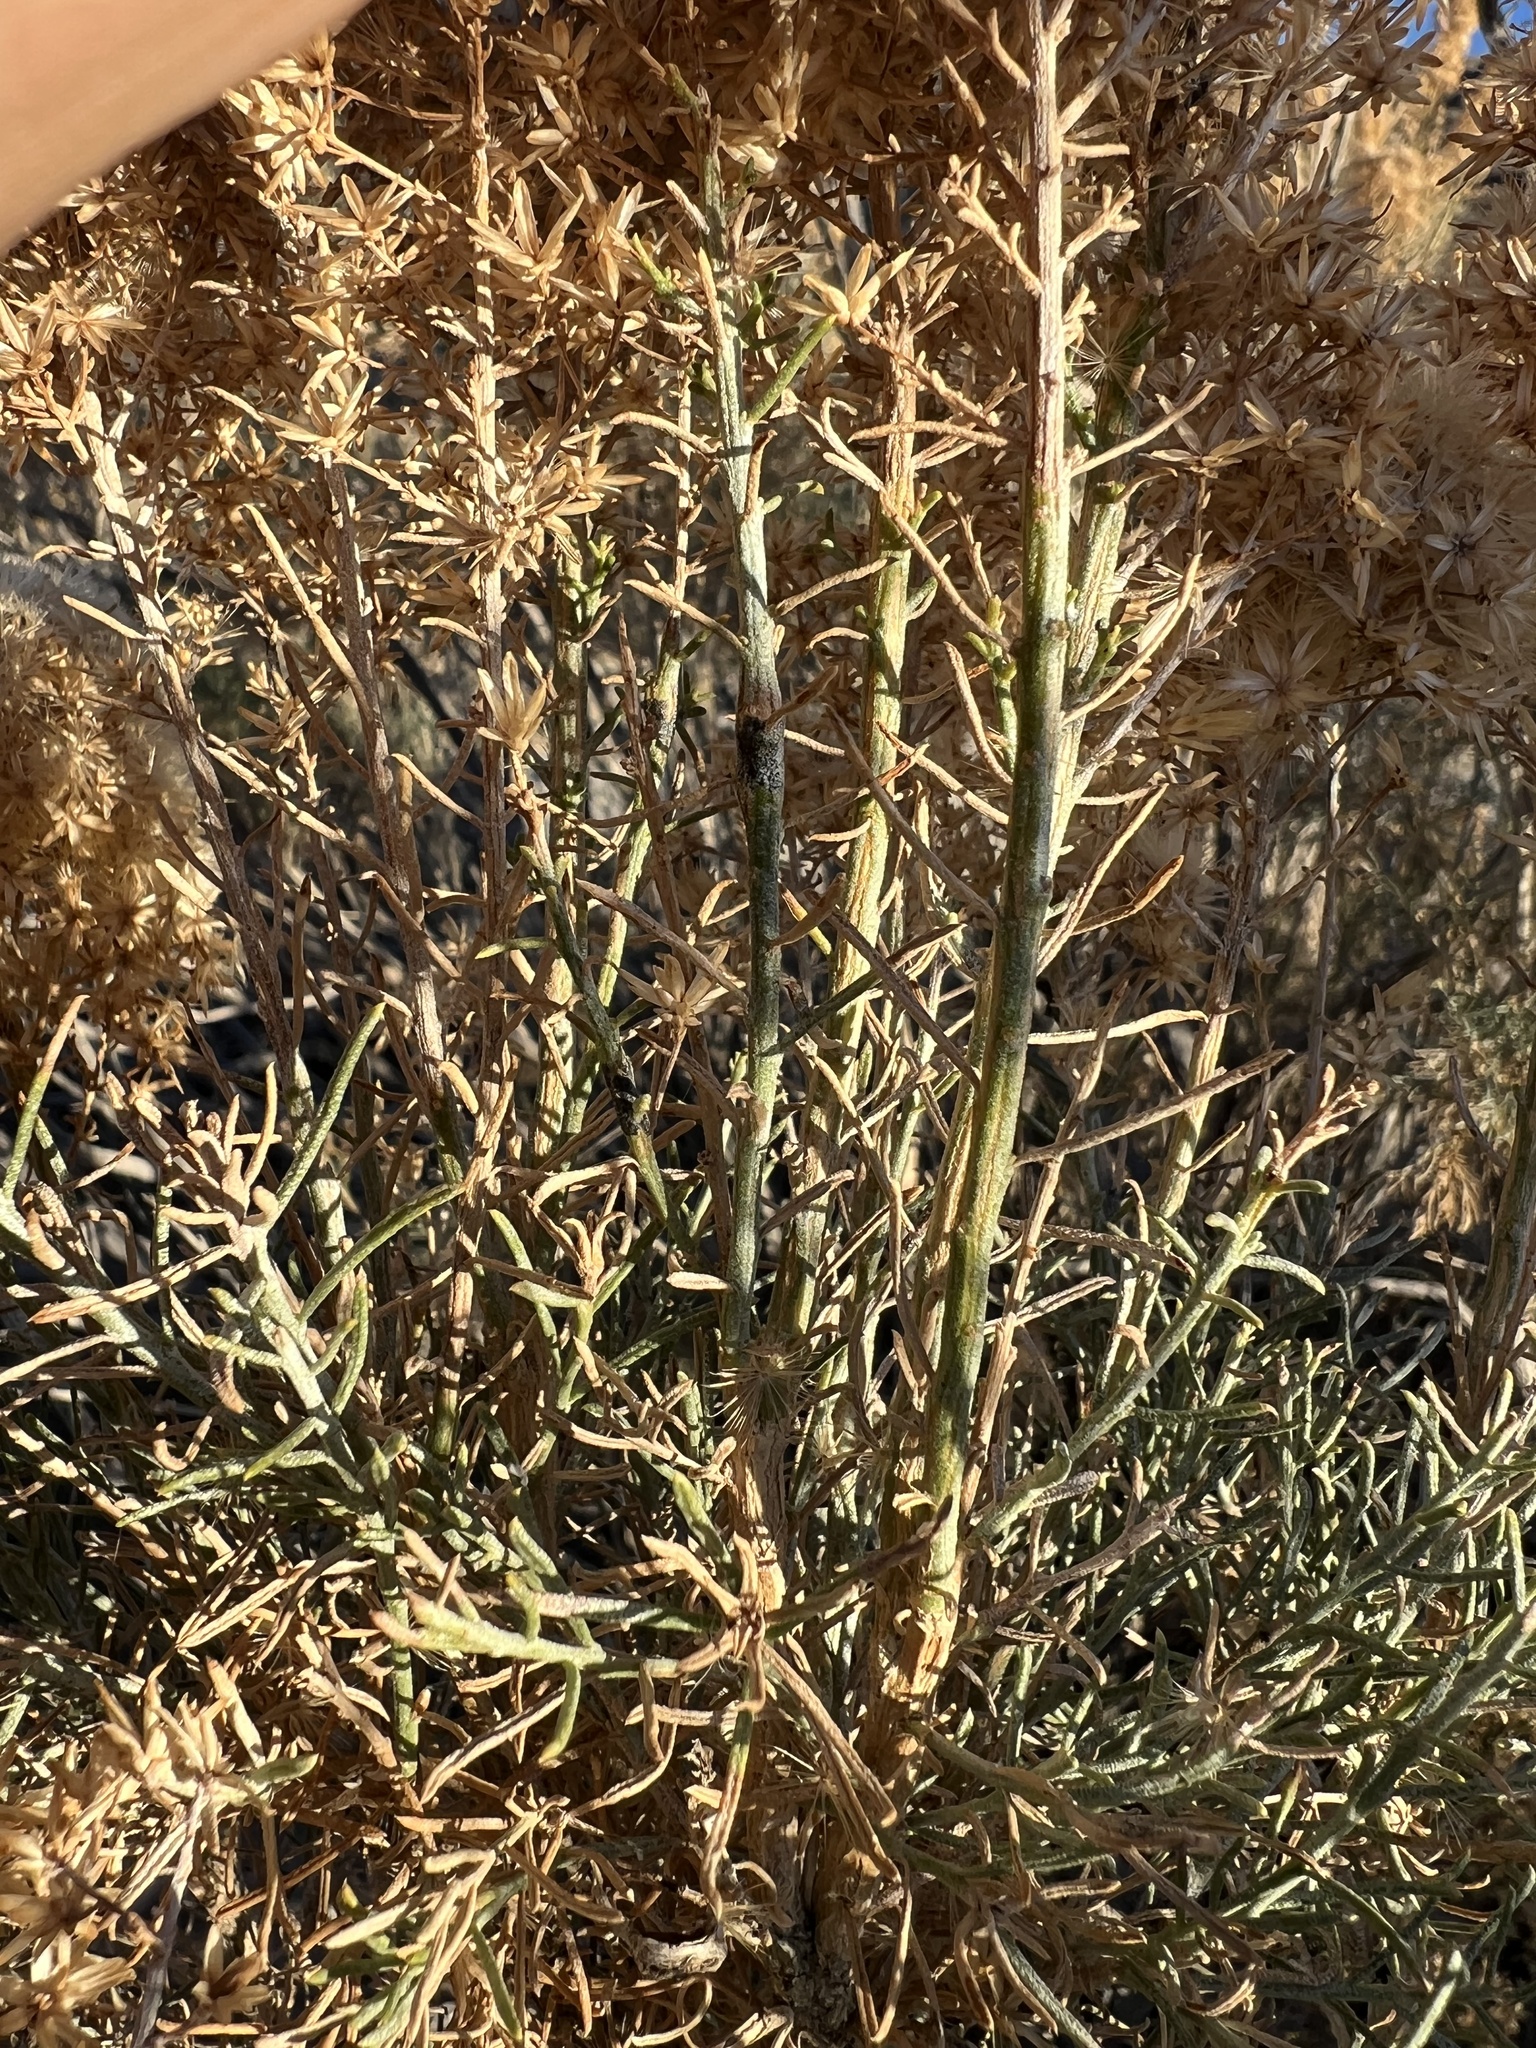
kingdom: Plantae
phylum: Tracheophyta
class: Magnoliopsida
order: Asterales
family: Asteraceae
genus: Ericameria
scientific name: Ericameria paniculata
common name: Punctate rabbitbrush
